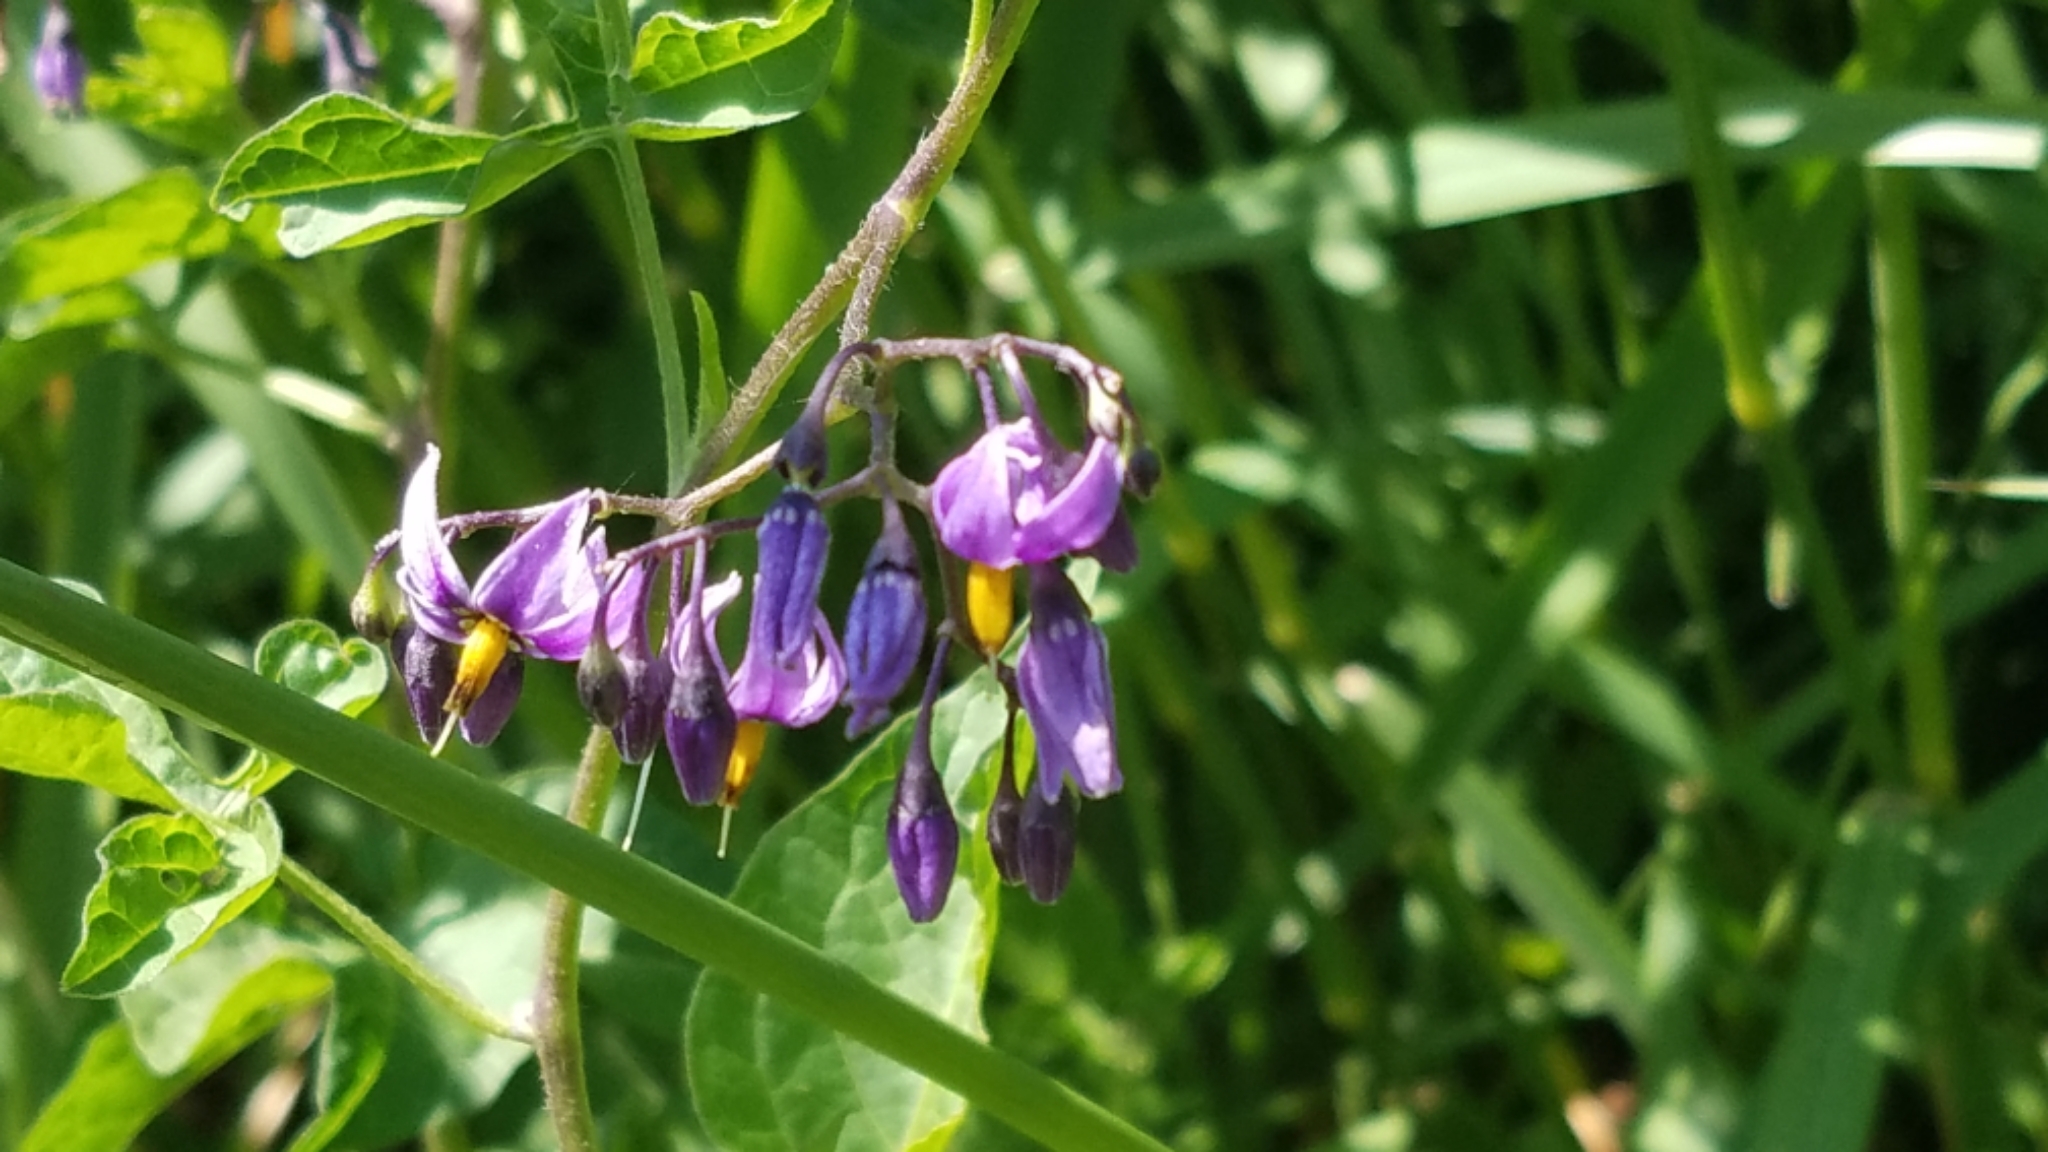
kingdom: Plantae
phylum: Tracheophyta
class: Magnoliopsida
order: Solanales
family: Solanaceae
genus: Solanum
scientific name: Solanum dulcamara
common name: Climbing nightshade
